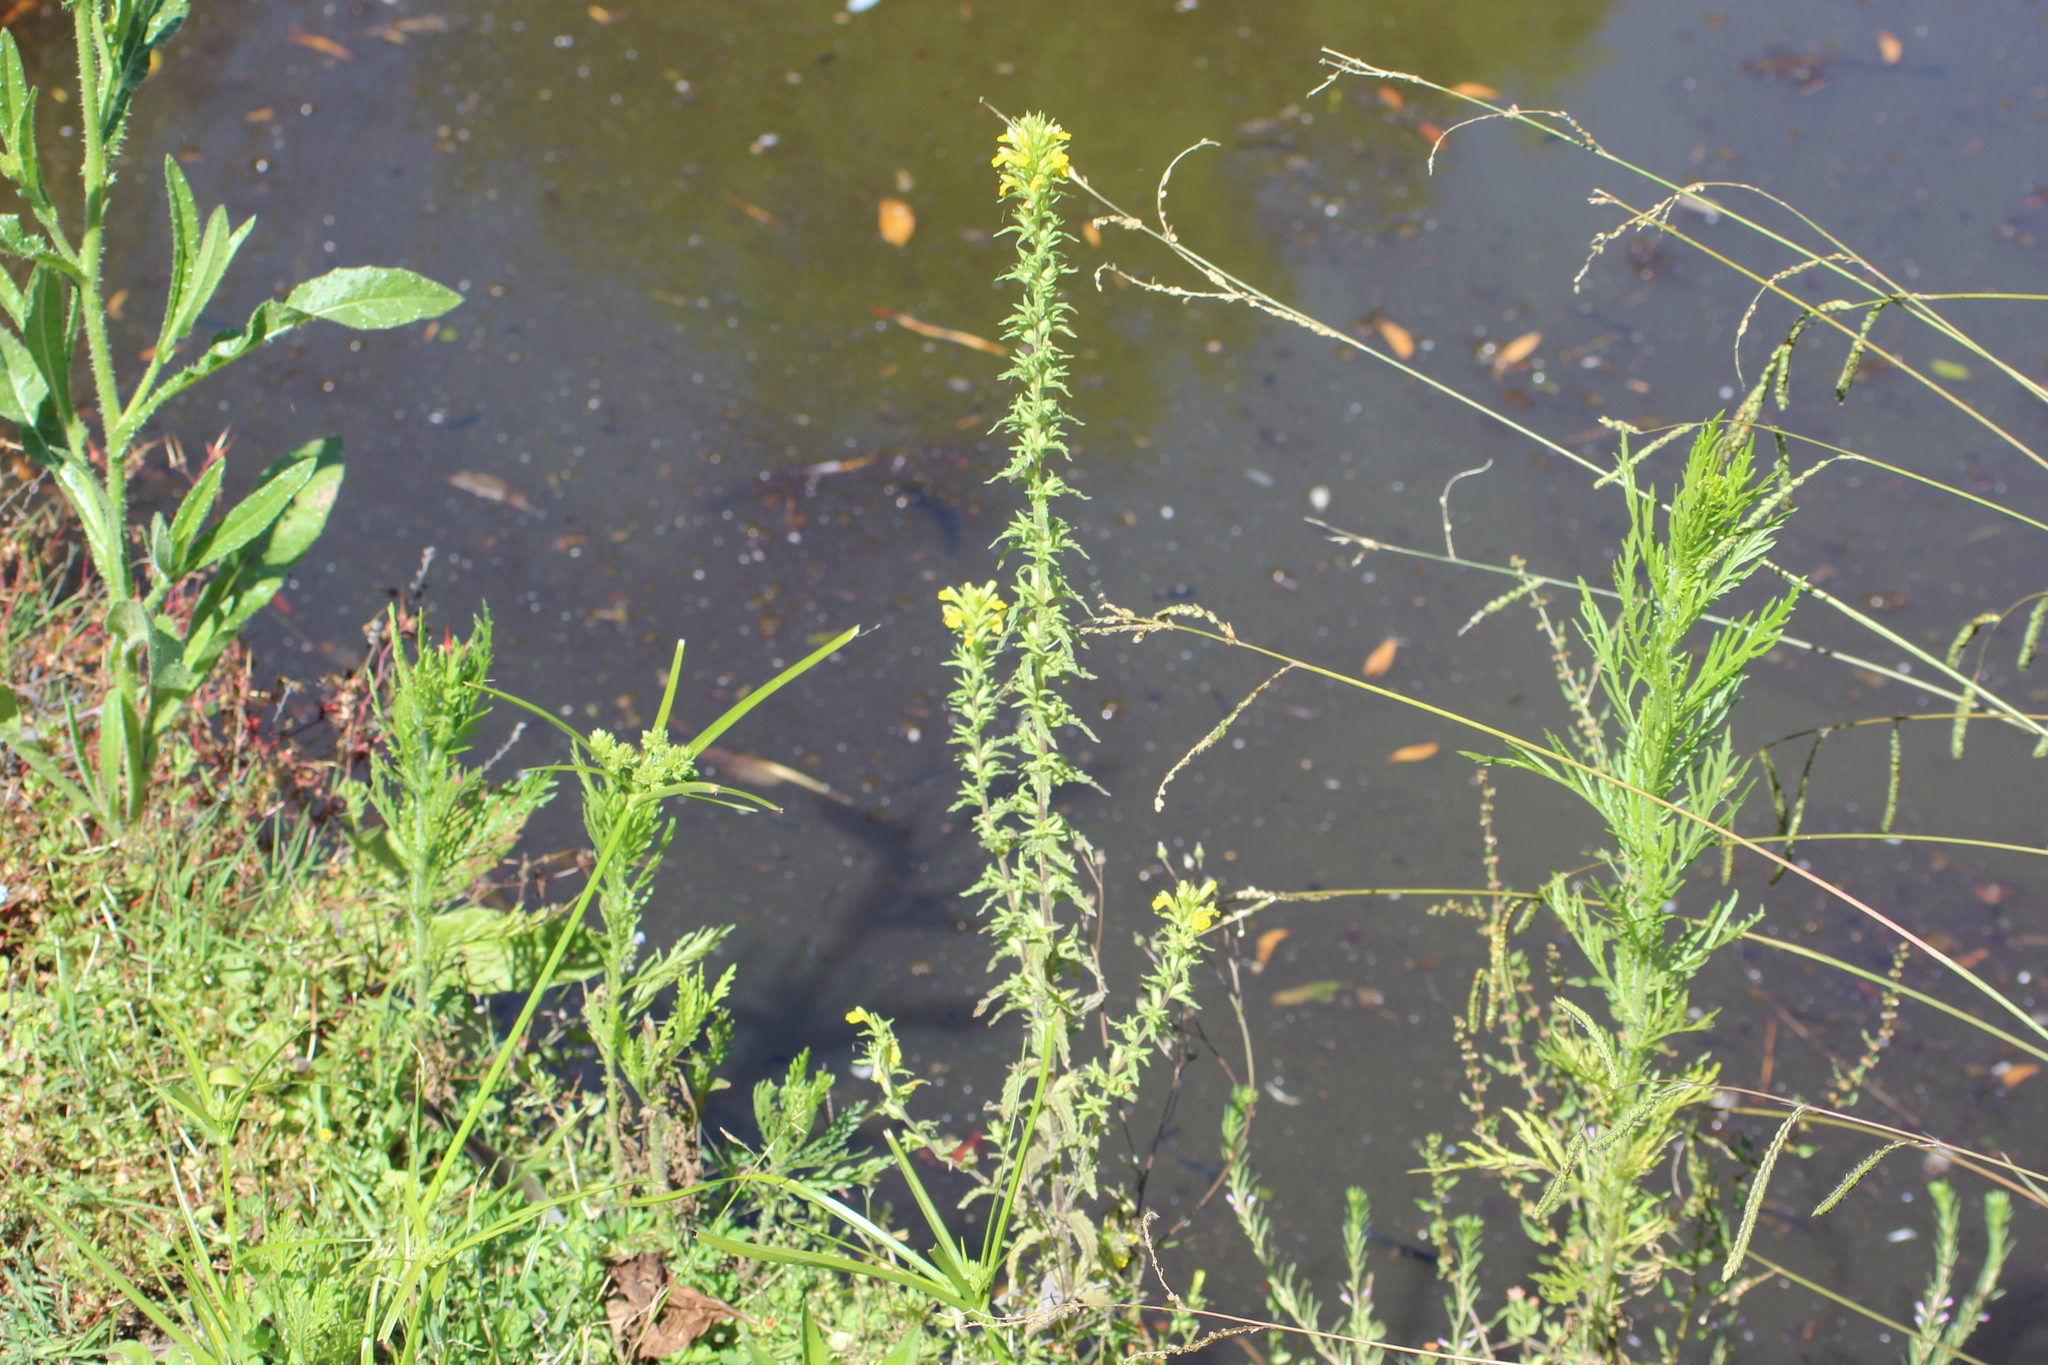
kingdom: Plantae
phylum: Tracheophyta
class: Magnoliopsida
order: Lamiales
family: Orobanchaceae
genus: Bellardia
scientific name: Bellardia viscosa
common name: Sticky parentucellia
